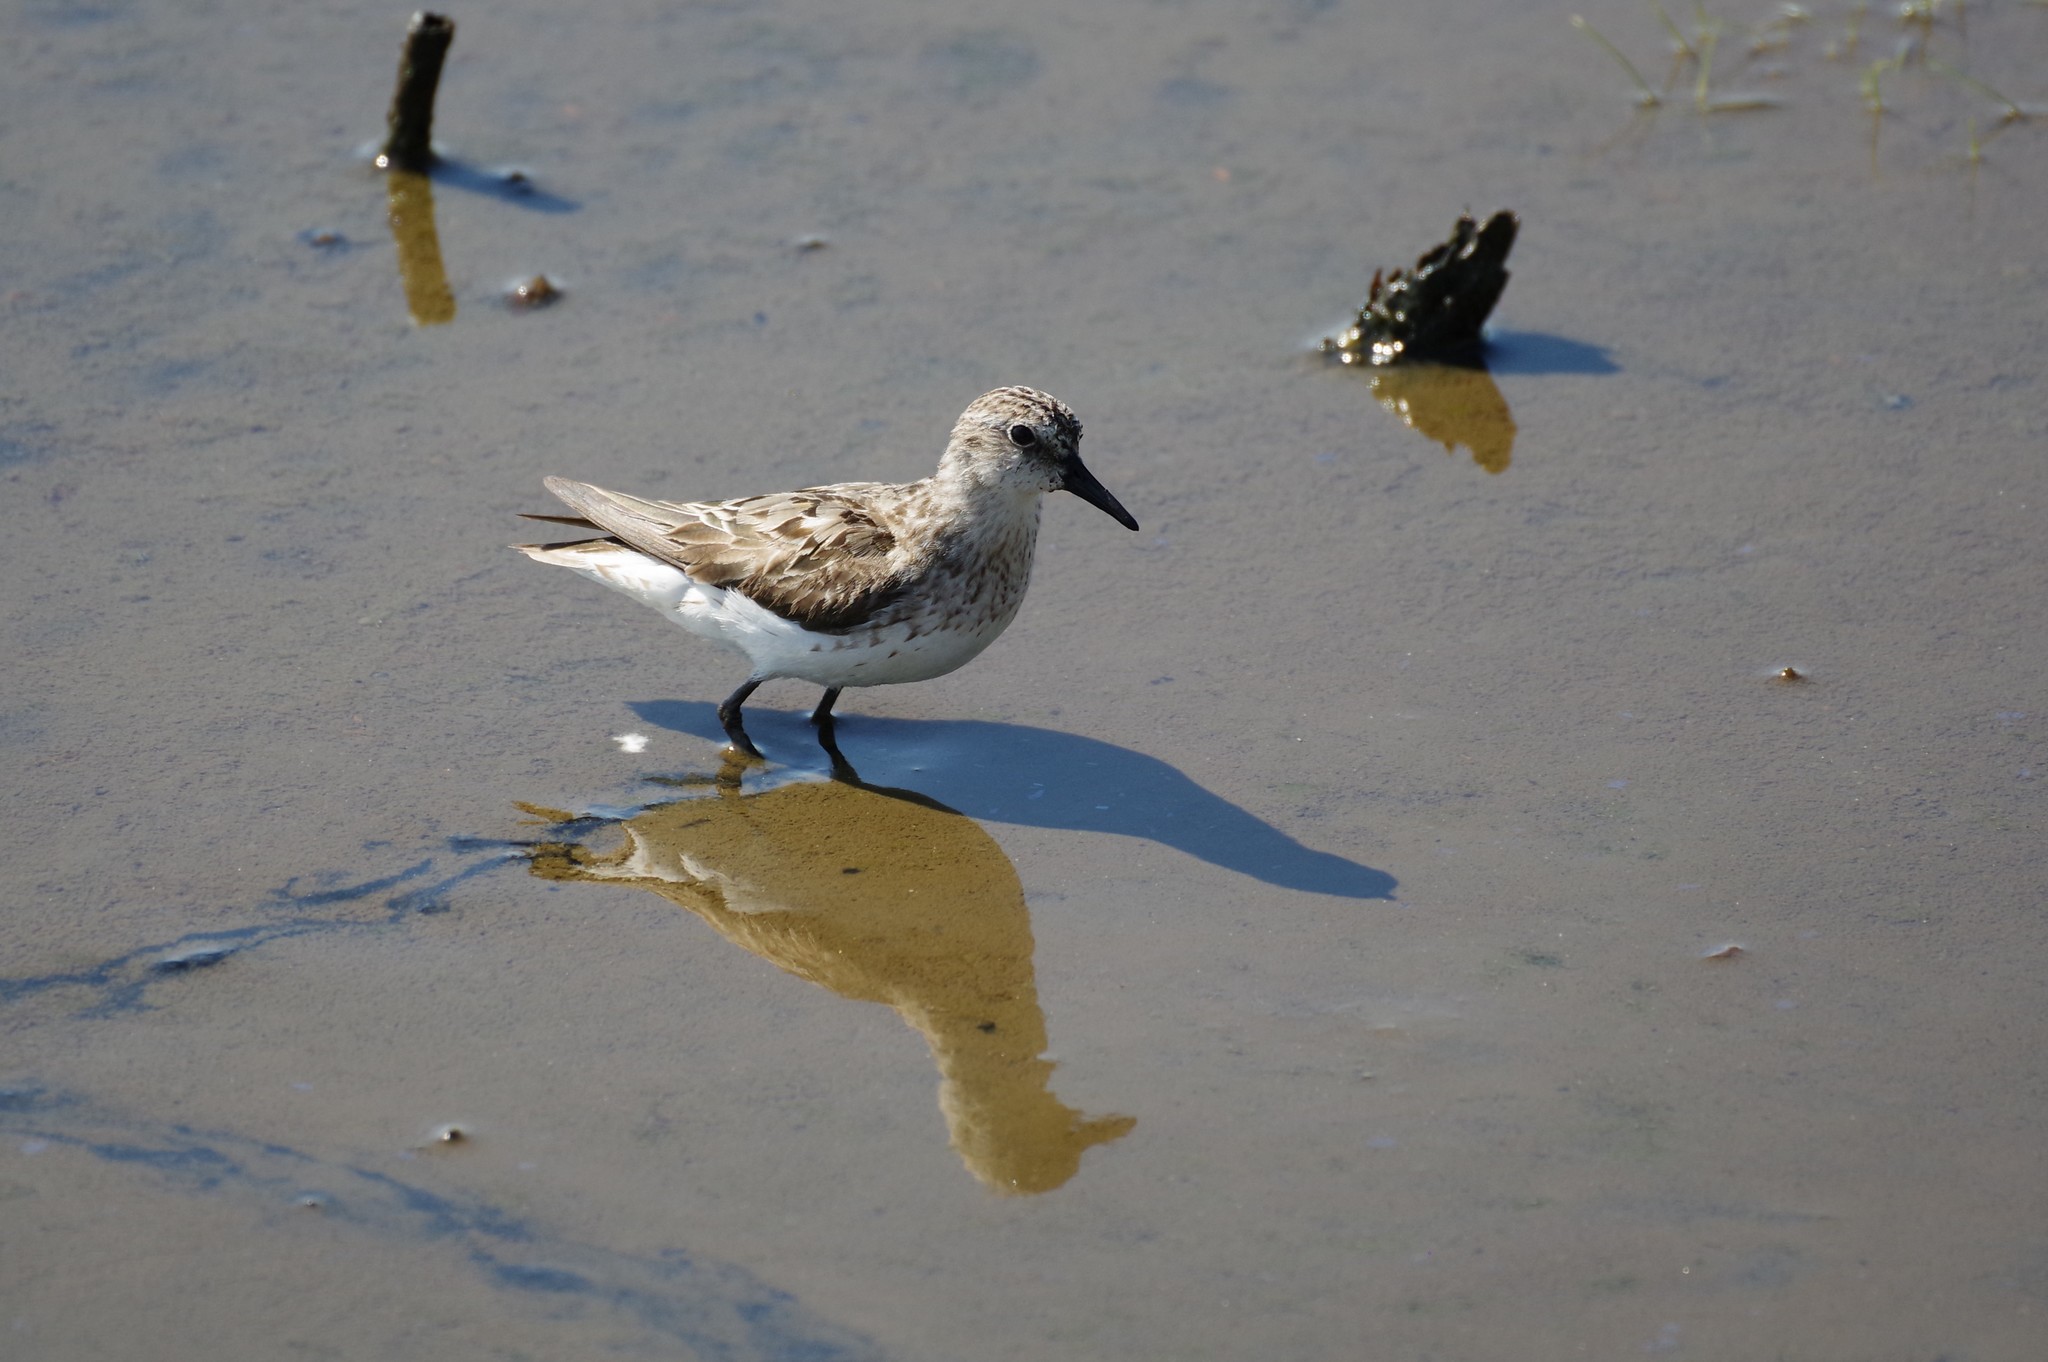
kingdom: Animalia
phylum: Chordata
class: Aves
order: Charadriiformes
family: Scolopacidae
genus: Calidris
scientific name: Calidris pusilla
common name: Semipalmated sandpiper
